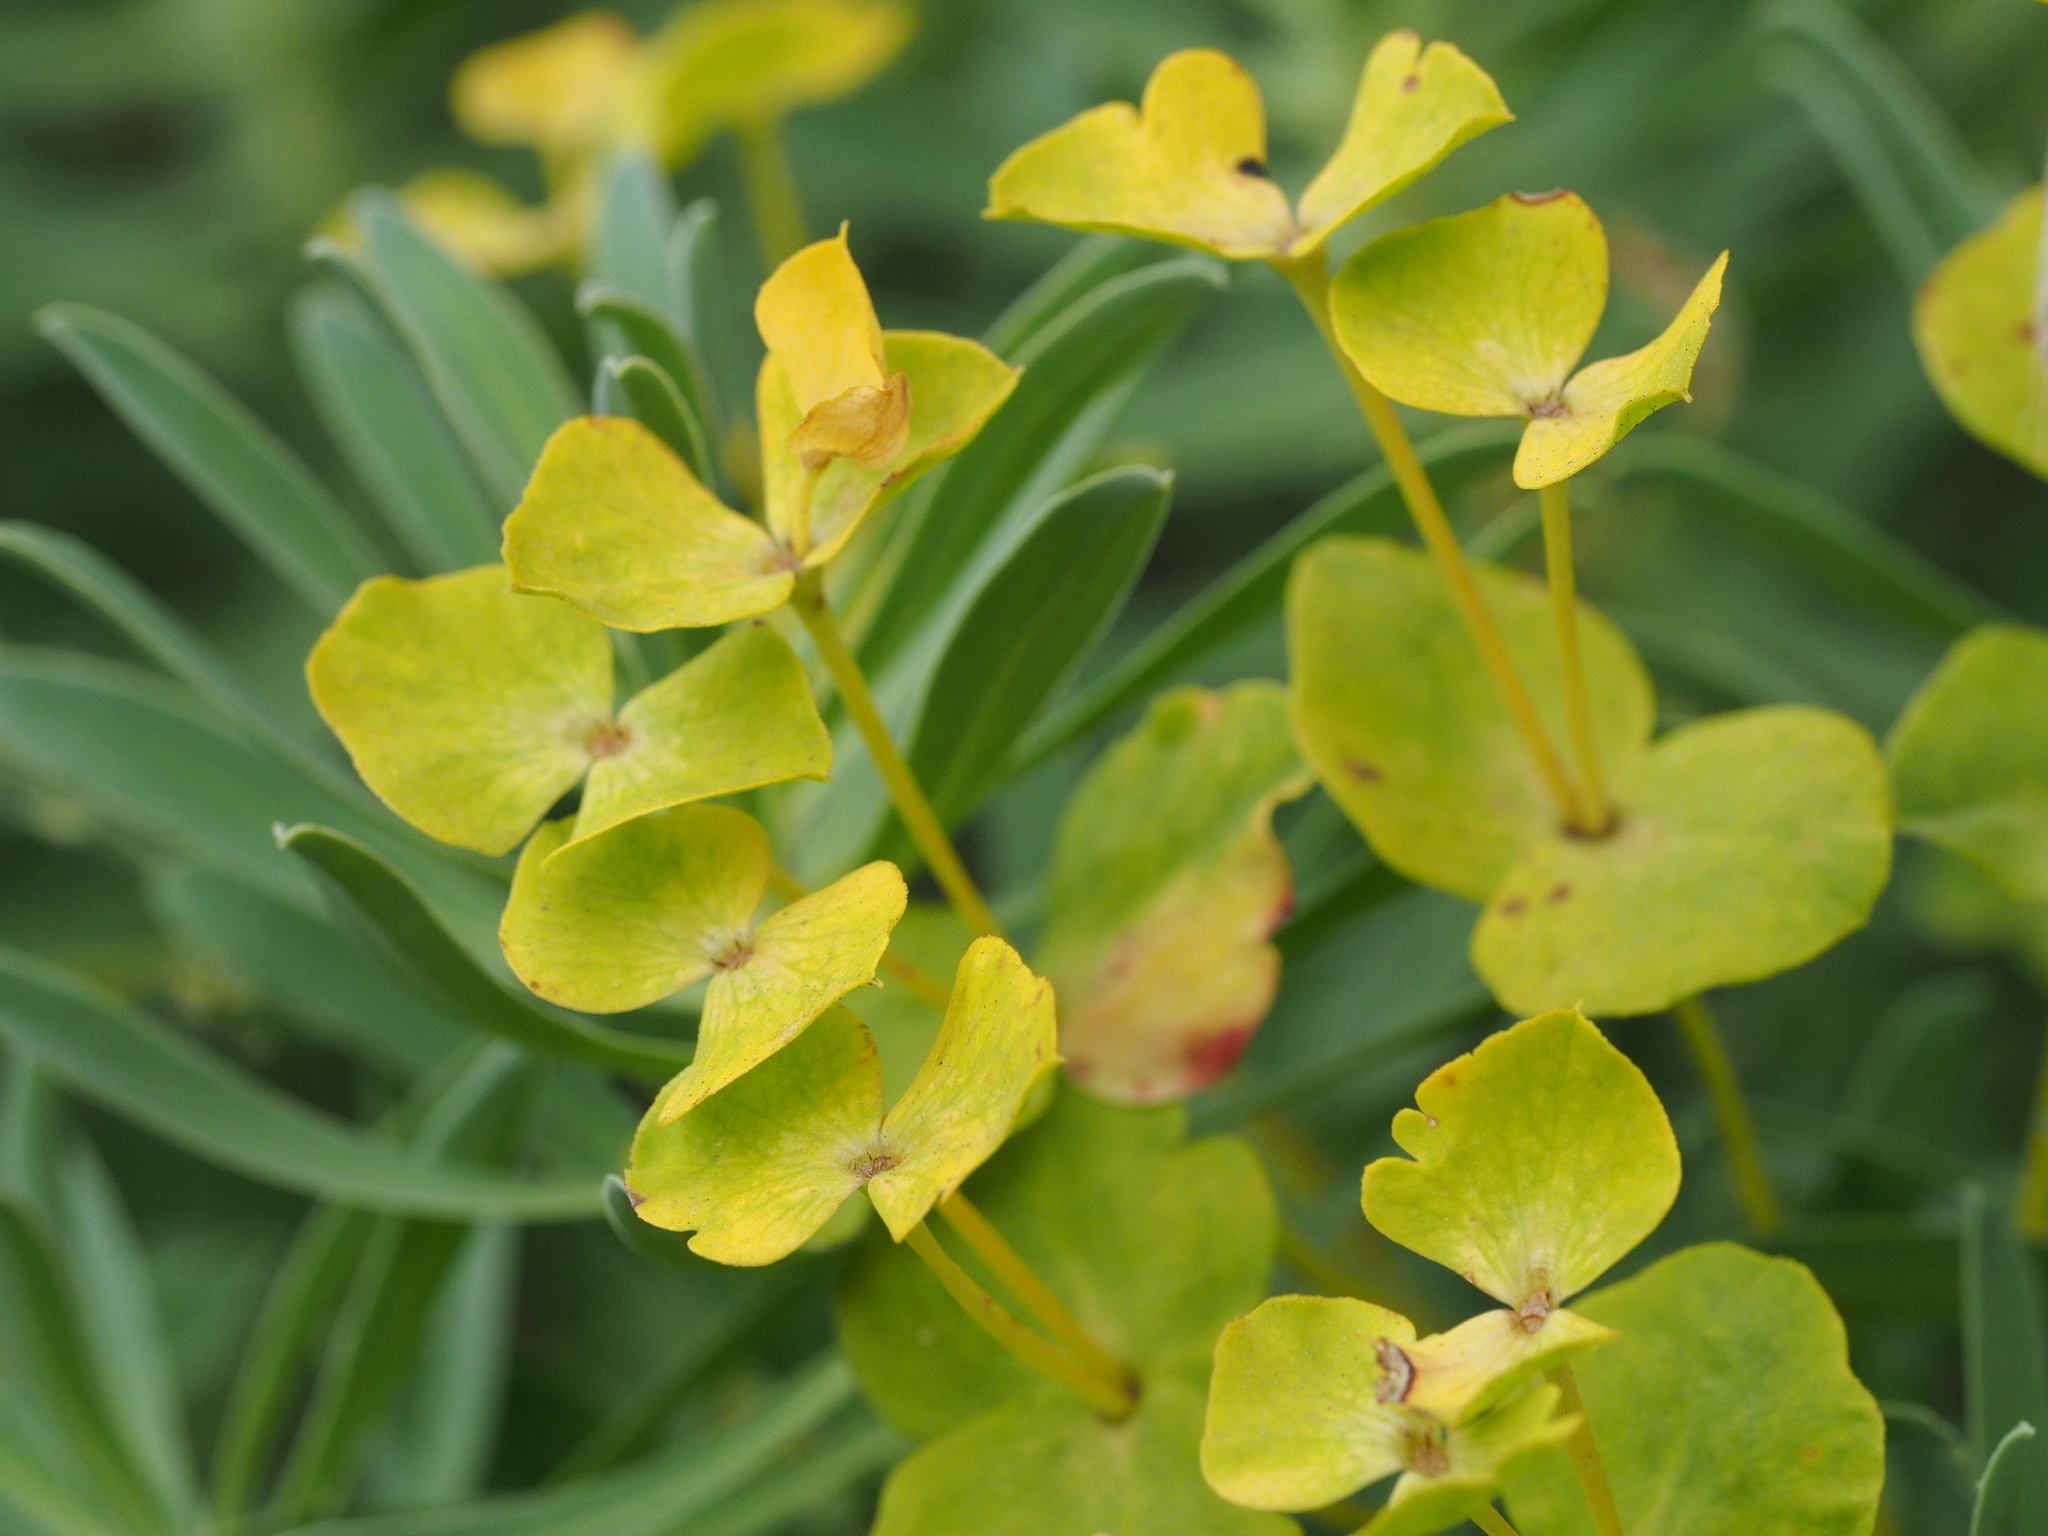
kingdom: Plantae
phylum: Tracheophyta
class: Magnoliopsida
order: Malpighiales
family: Euphorbiaceae
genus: Euphorbia
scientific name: Euphorbia pannonica
